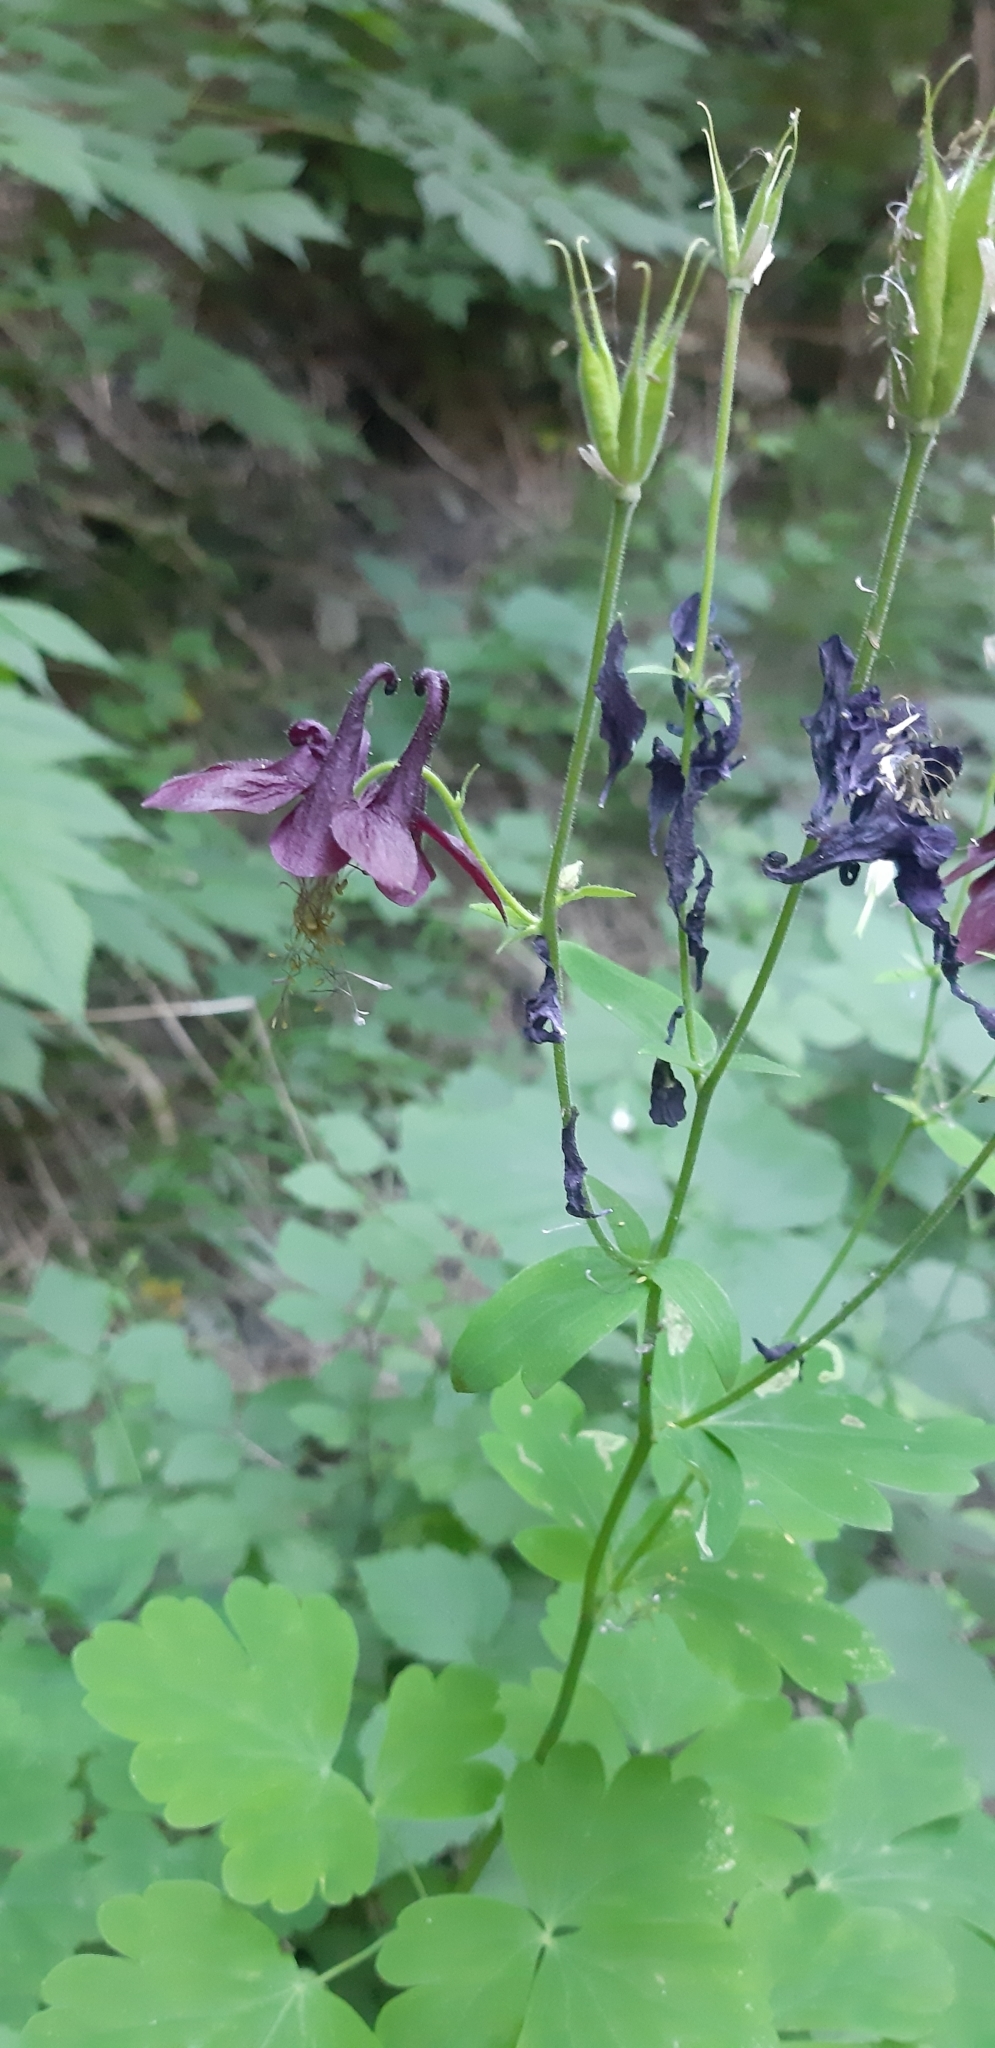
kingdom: Plantae
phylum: Tracheophyta
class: Magnoliopsida
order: Ranunculales
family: Ranunculaceae
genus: Aquilegia
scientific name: Aquilegia atrata
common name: Dark columbine
